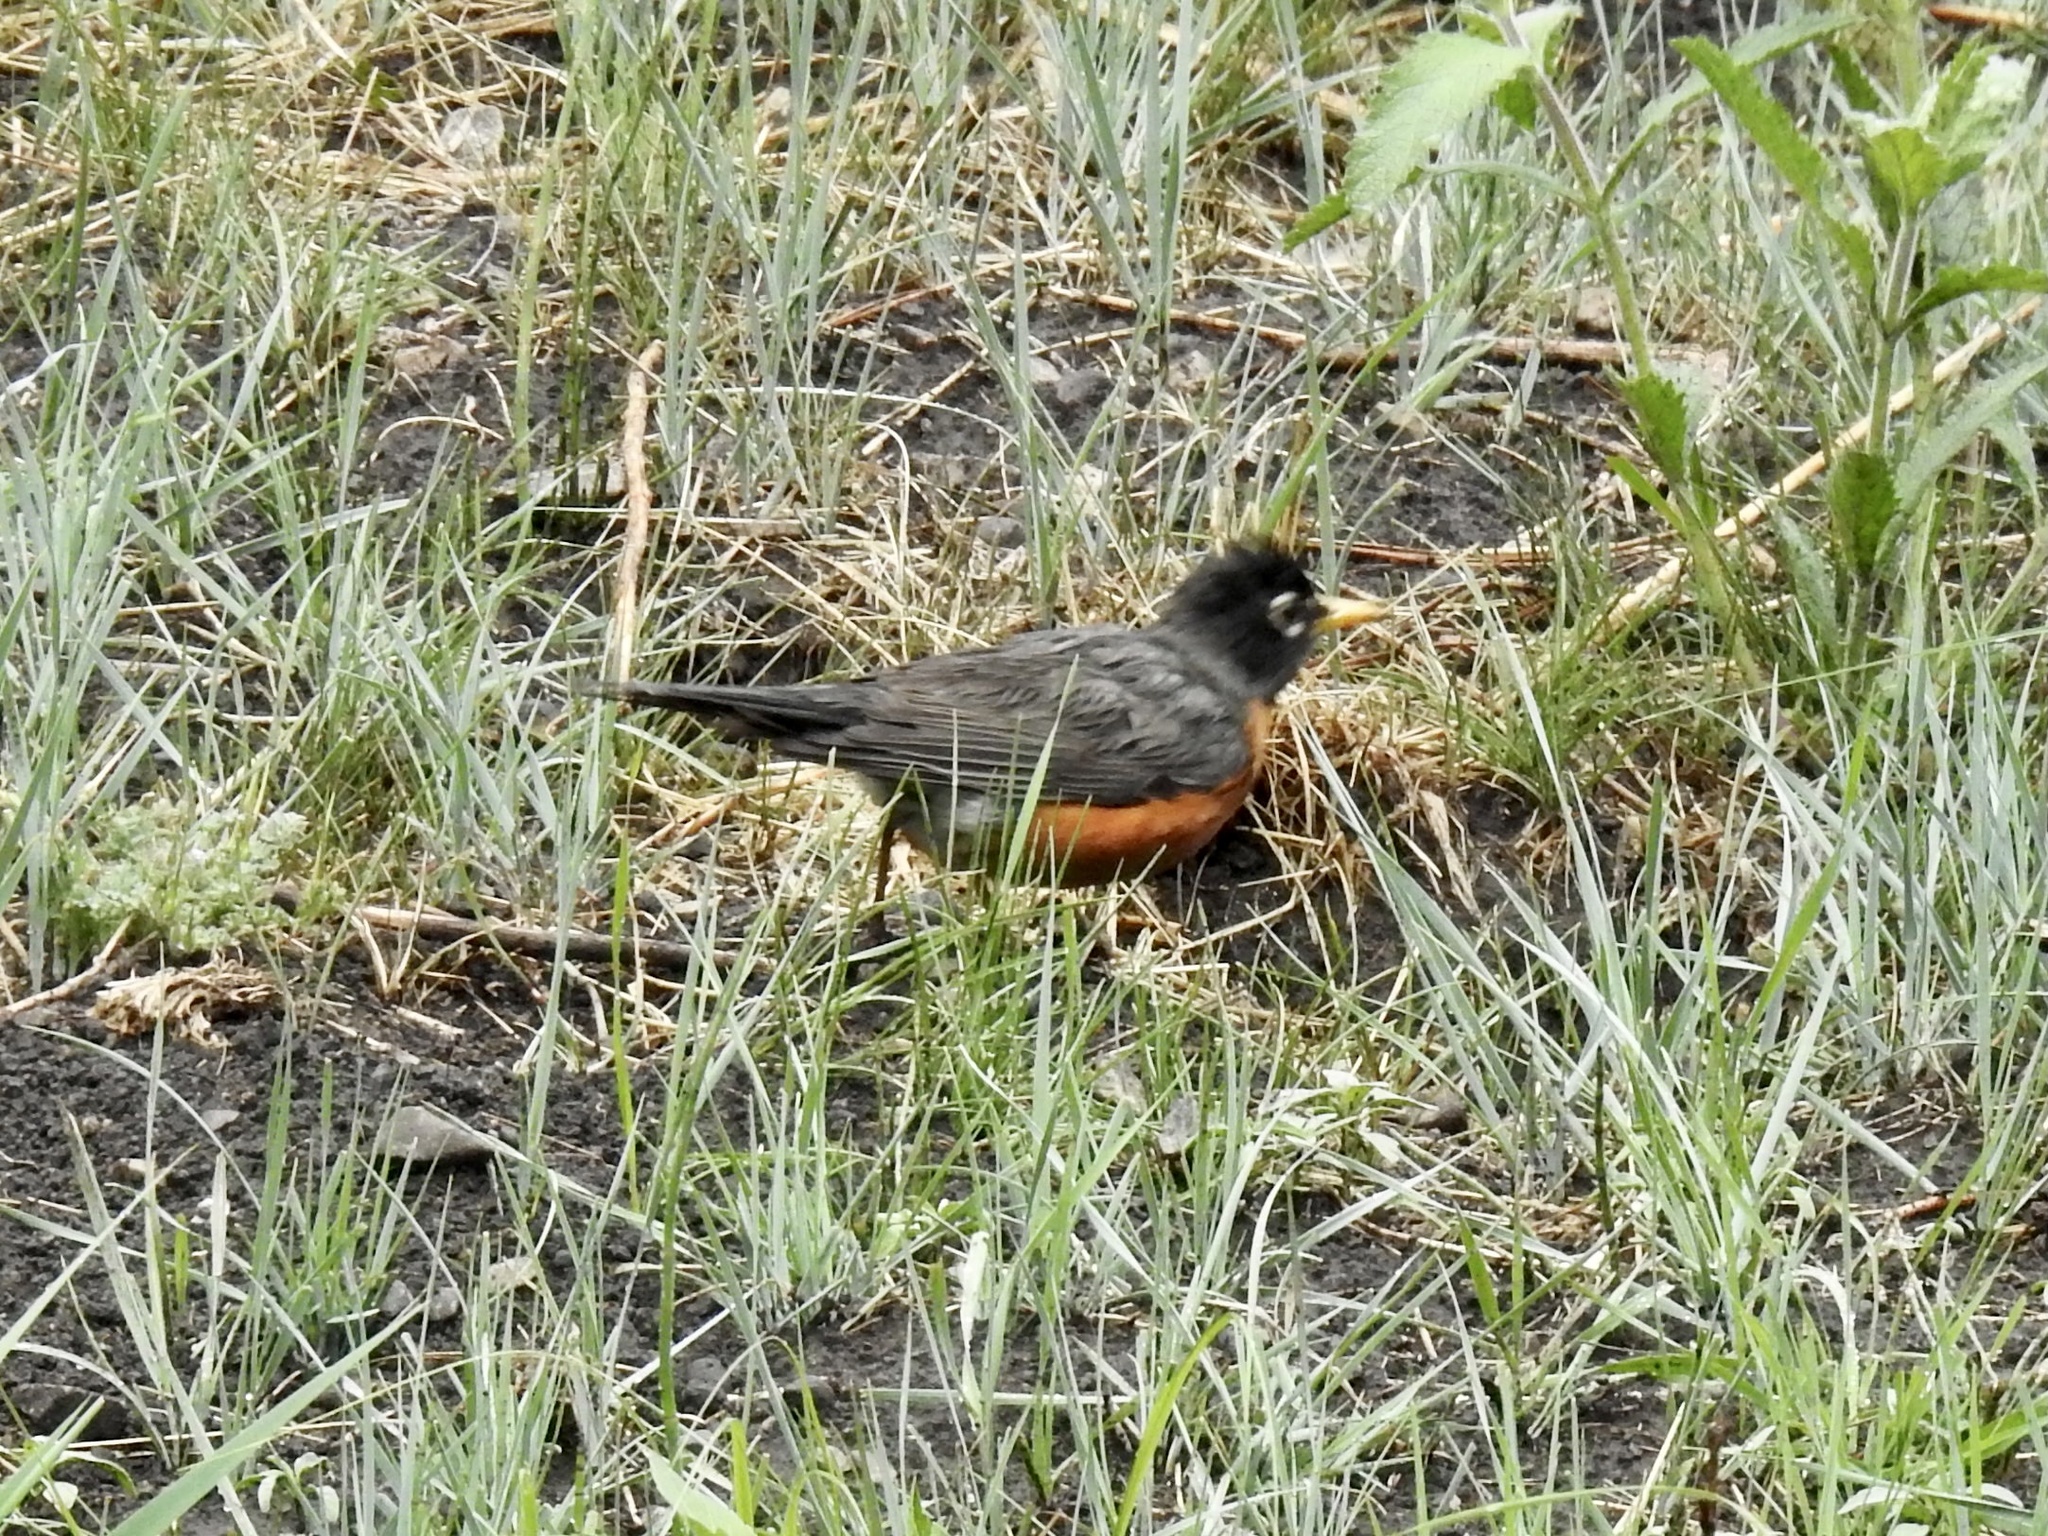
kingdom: Animalia
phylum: Chordata
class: Aves
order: Passeriformes
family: Turdidae
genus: Turdus
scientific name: Turdus migratorius
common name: American robin
